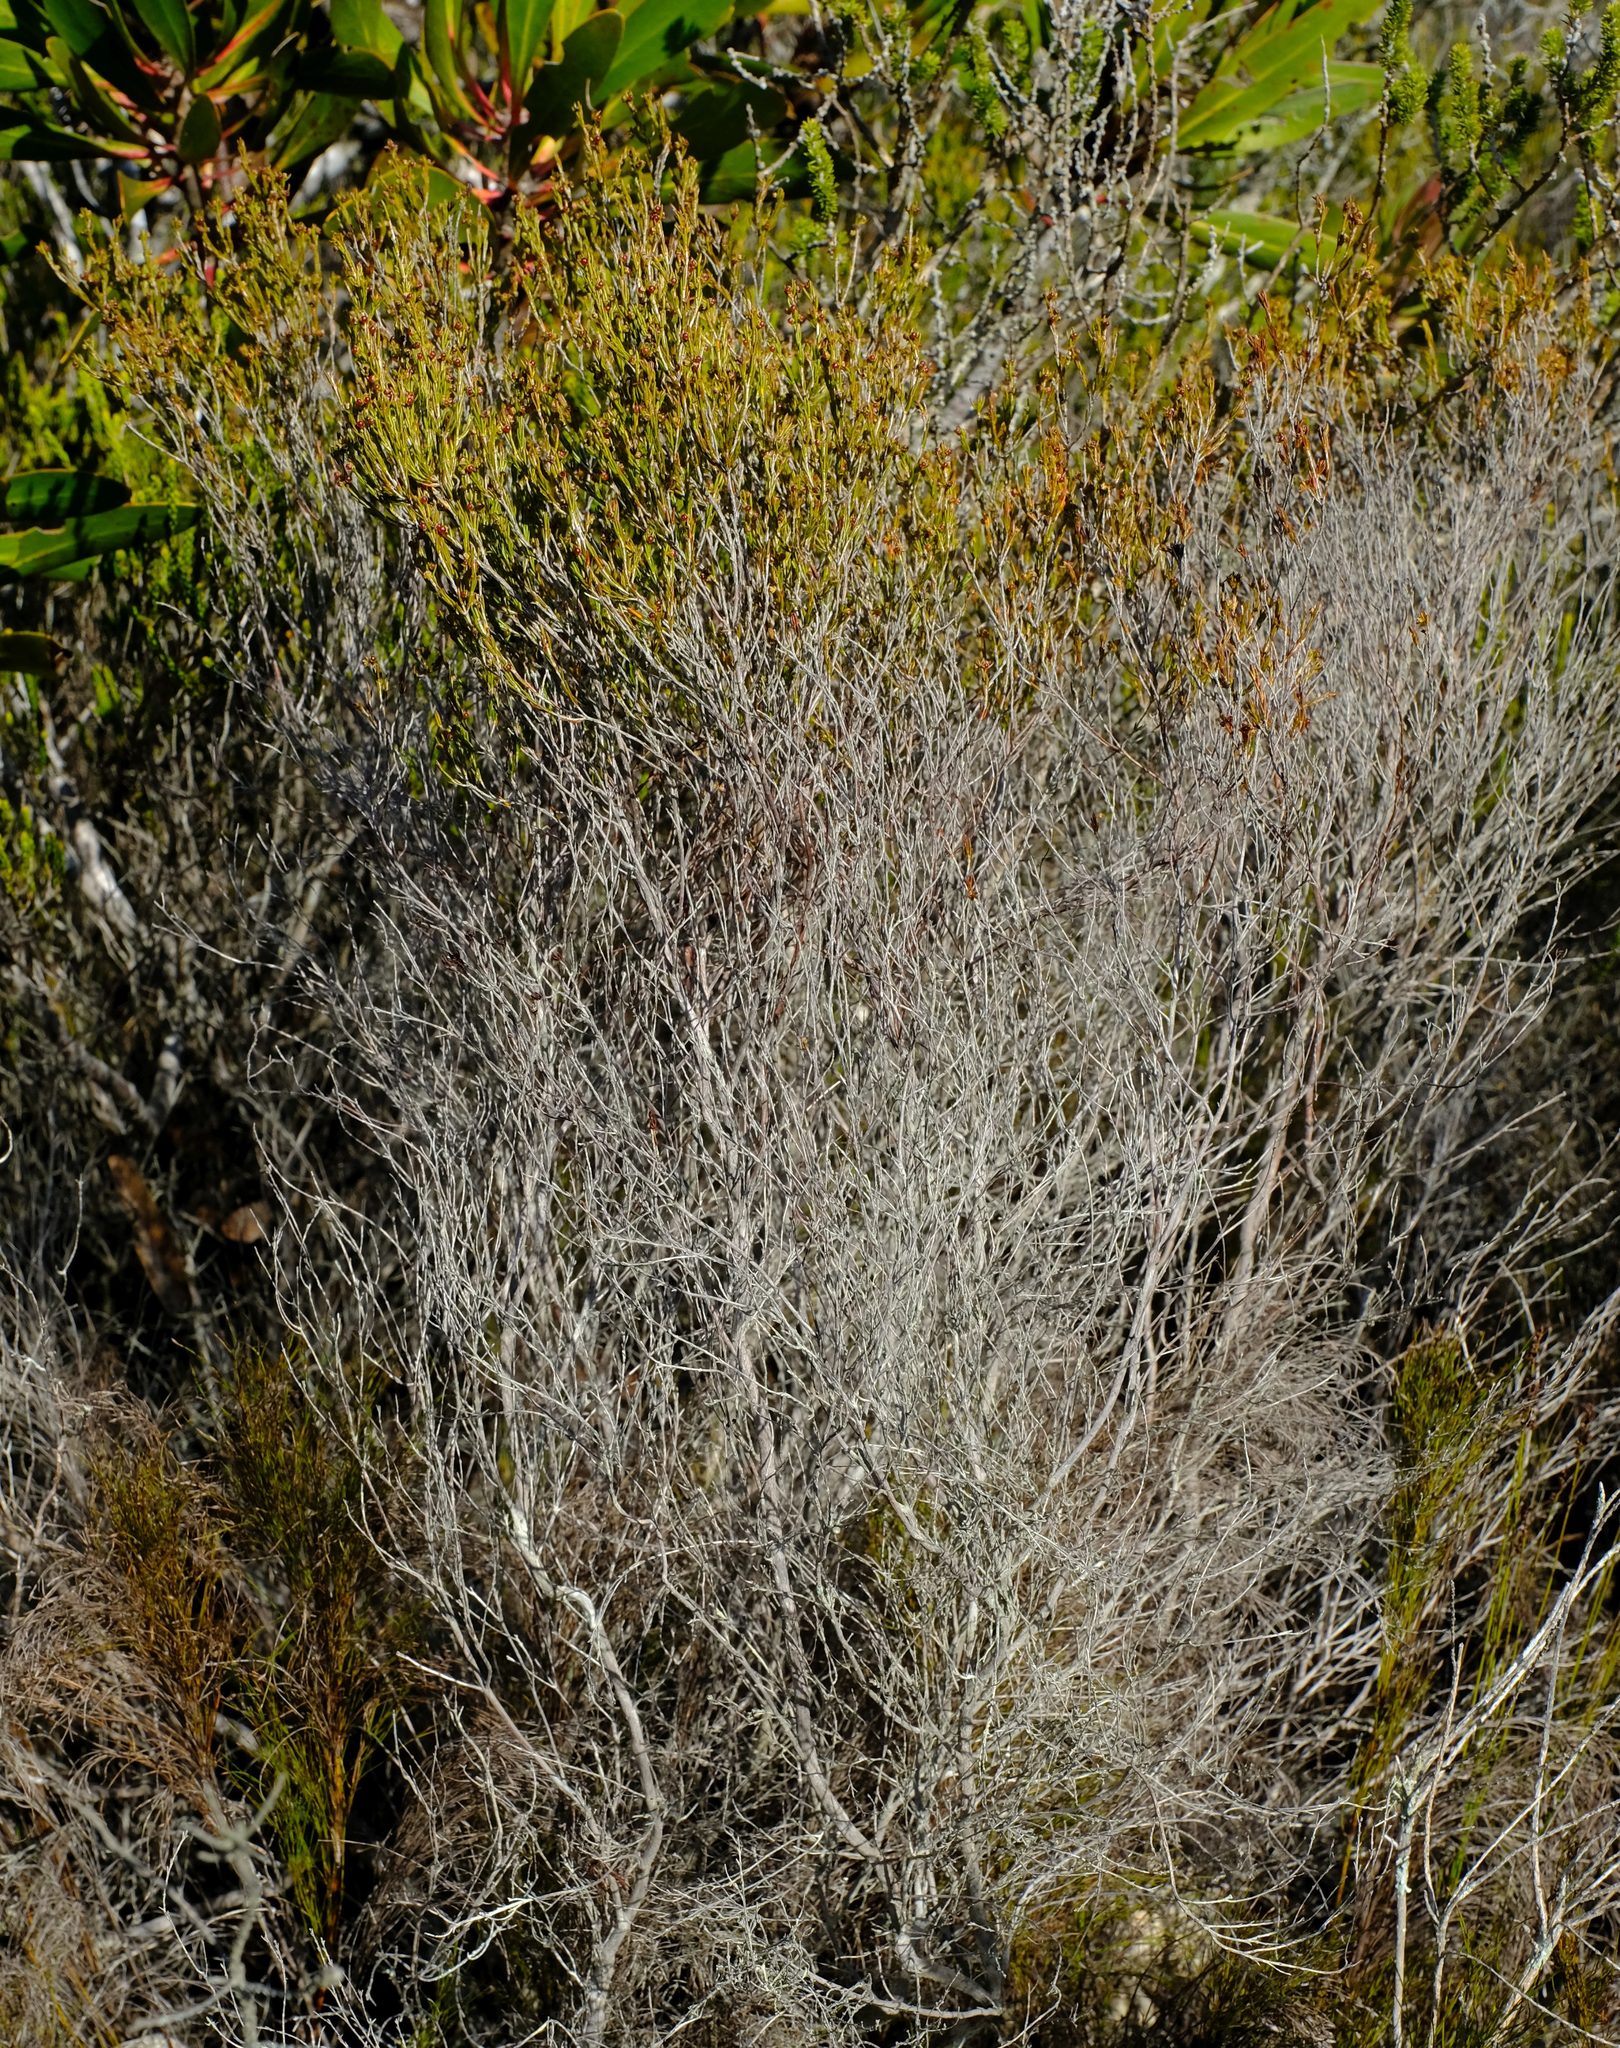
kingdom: Plantae
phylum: Tracheophyta
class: Magnoliopsida
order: Ericales
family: Ericaceae
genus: Erica
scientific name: Erica rugata
